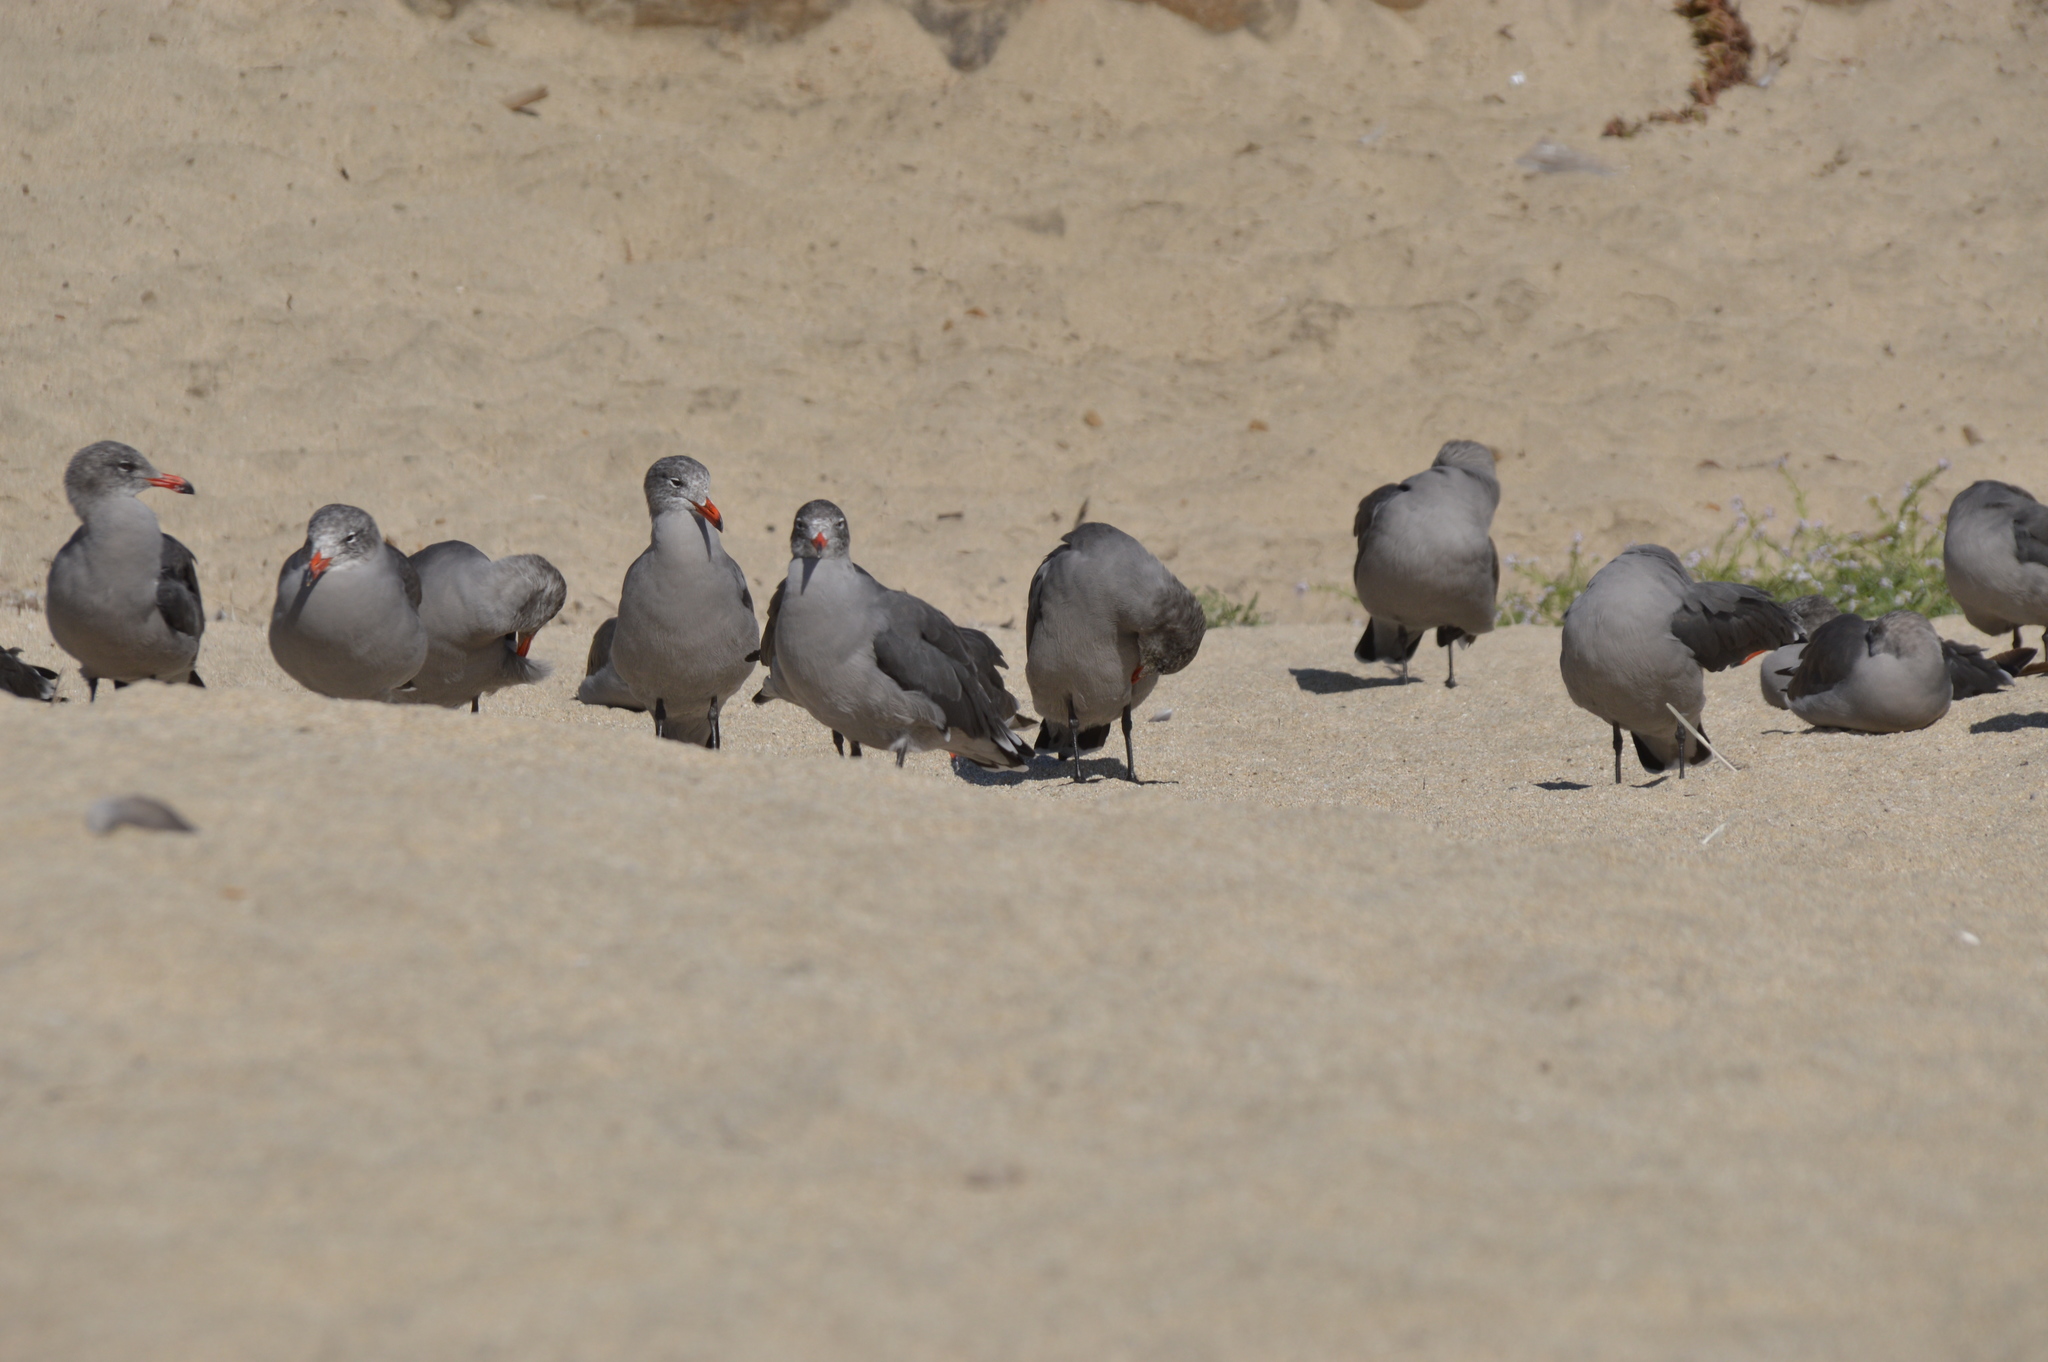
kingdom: Animalia
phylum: Chordata
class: Aves
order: Charadriiformes
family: Laridae
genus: Larus
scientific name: Larus heermanni
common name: Heermann's gull
